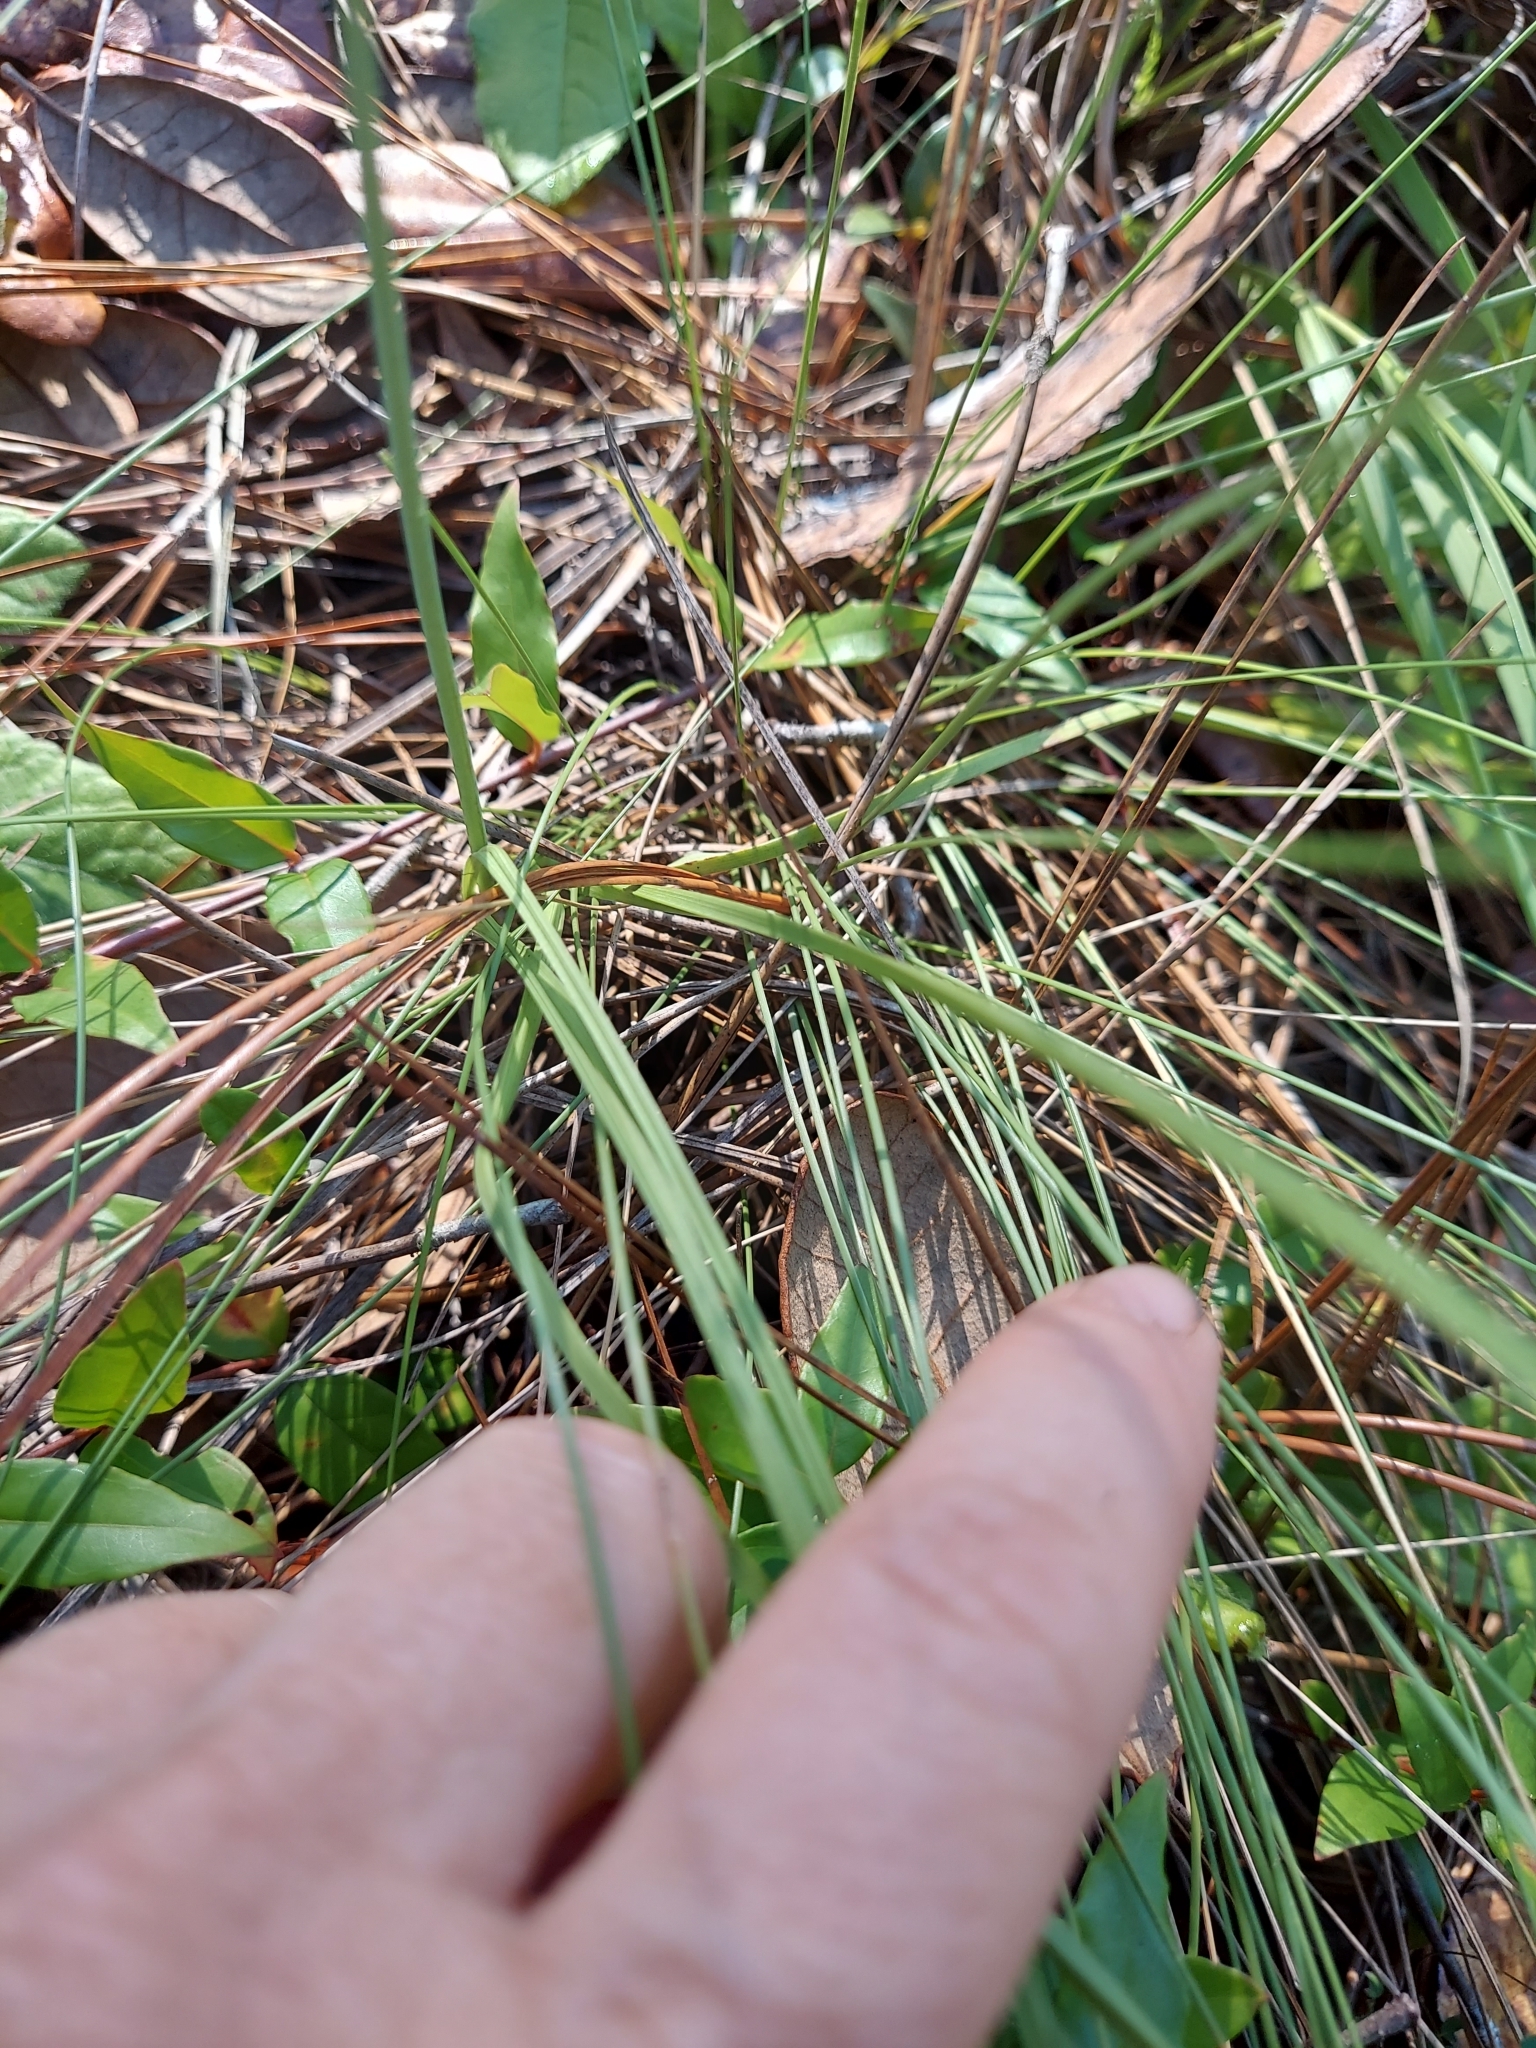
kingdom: Plantae
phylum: Tracheophyta
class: Liliopsida
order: Liliales
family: Melanthiaceae
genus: Schoenocaulon
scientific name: Schoenocaulon dubium
